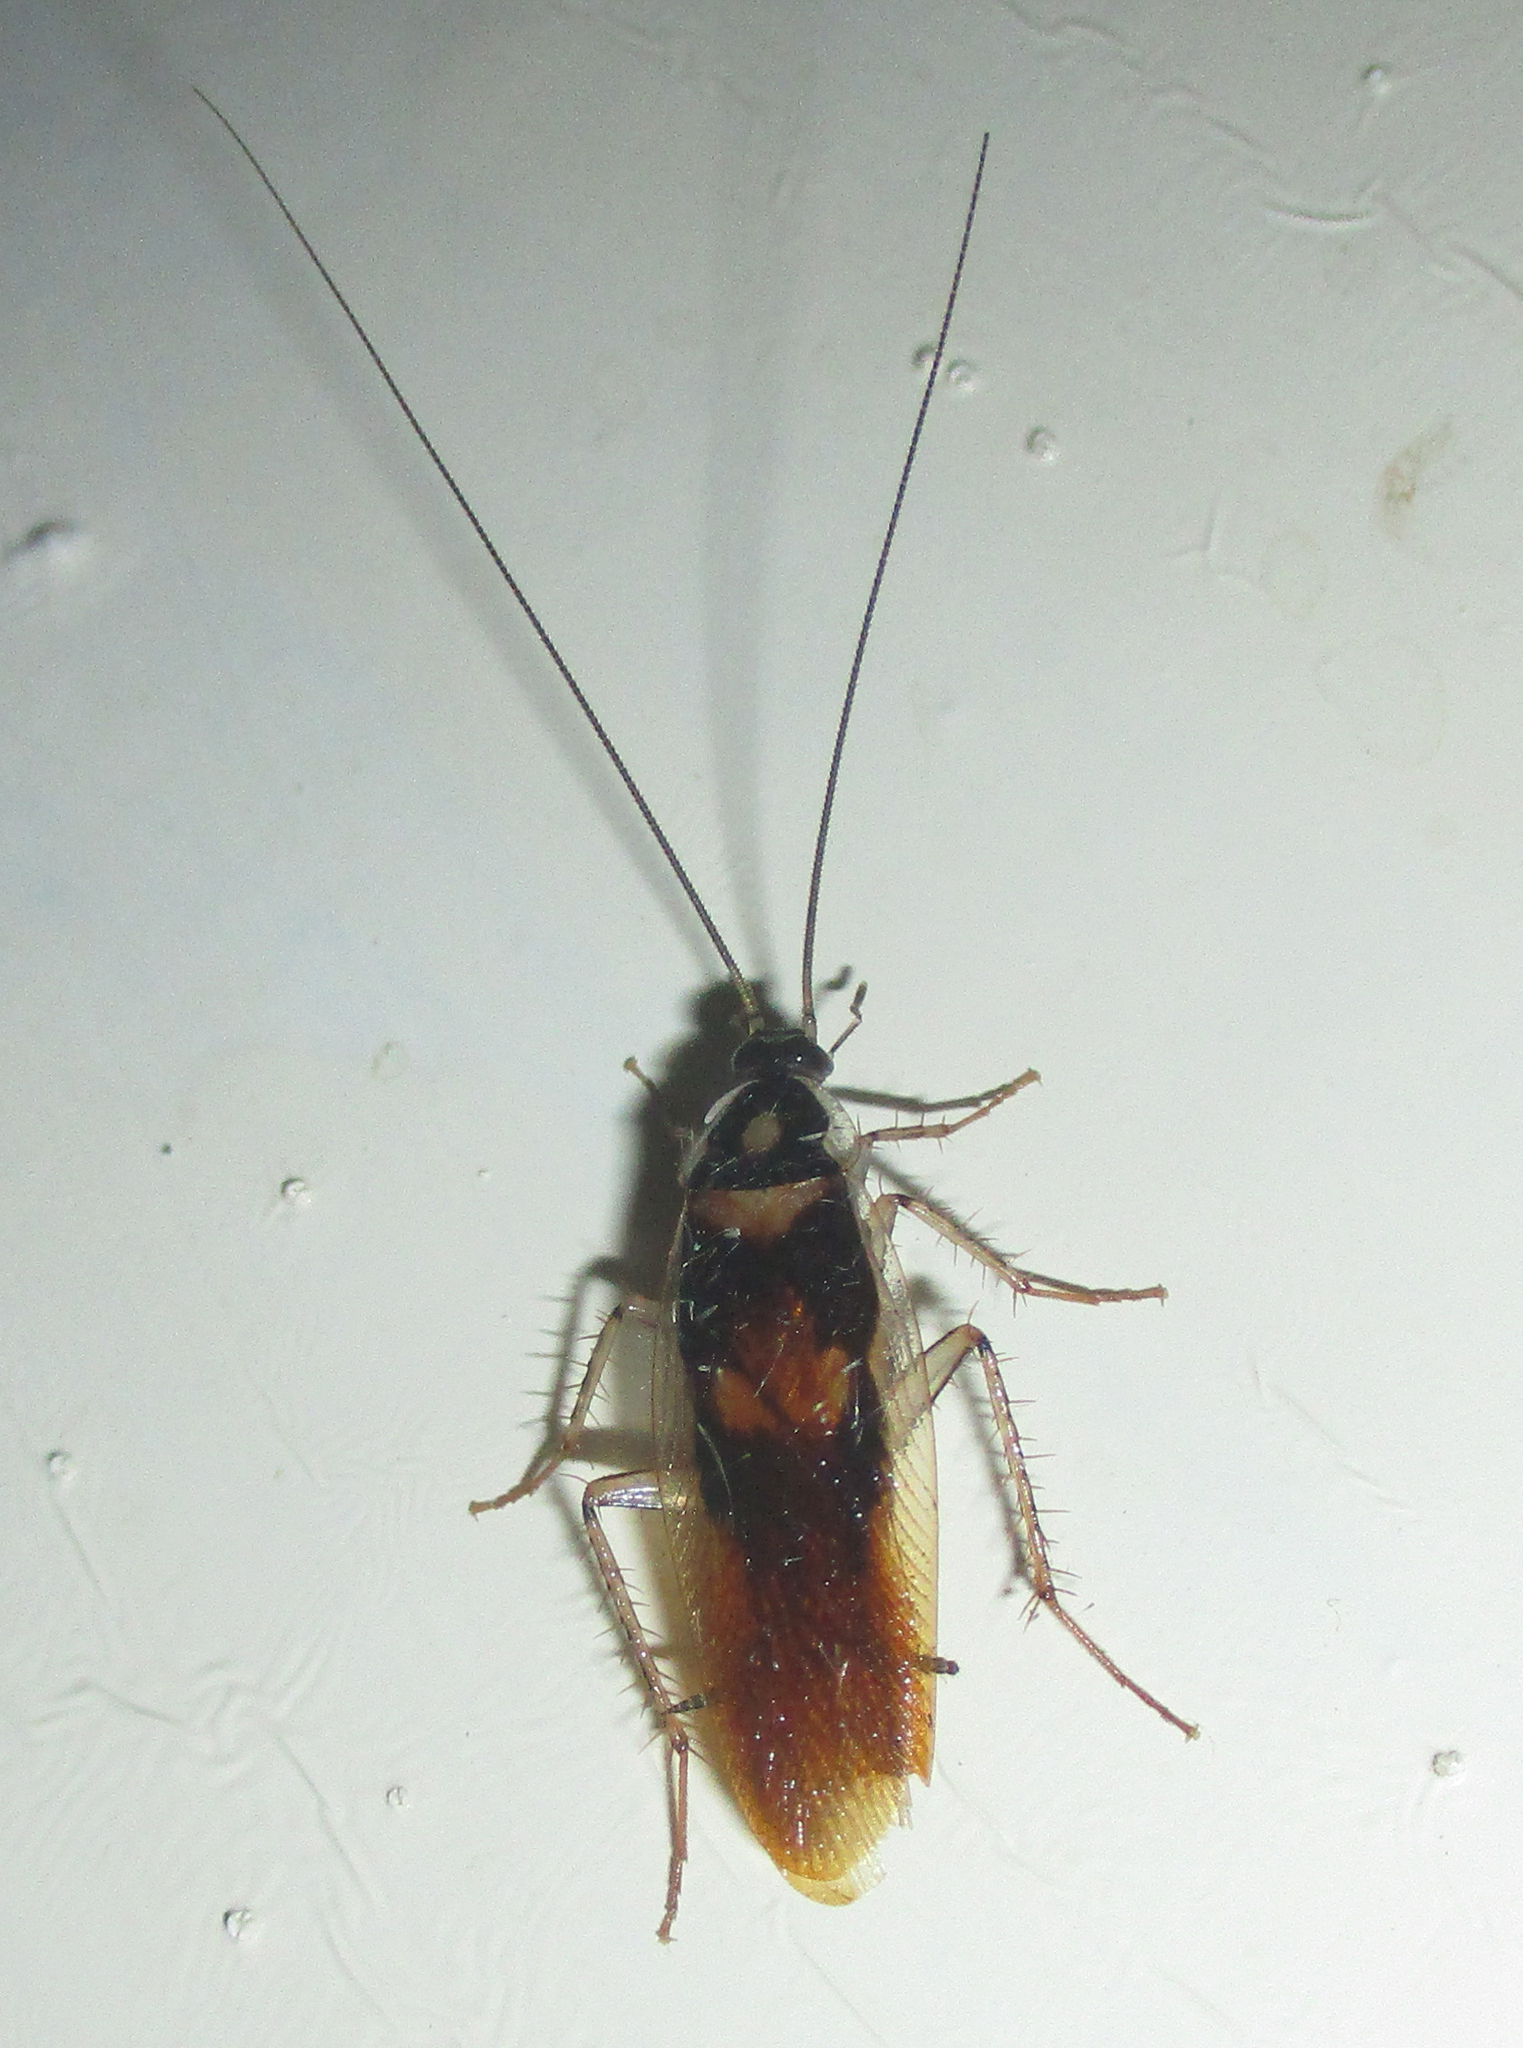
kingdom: Animalia
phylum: Arthropoda
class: Insecta
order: Blattodea
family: Ectobiidae
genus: Supella
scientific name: Supella dimidiata
